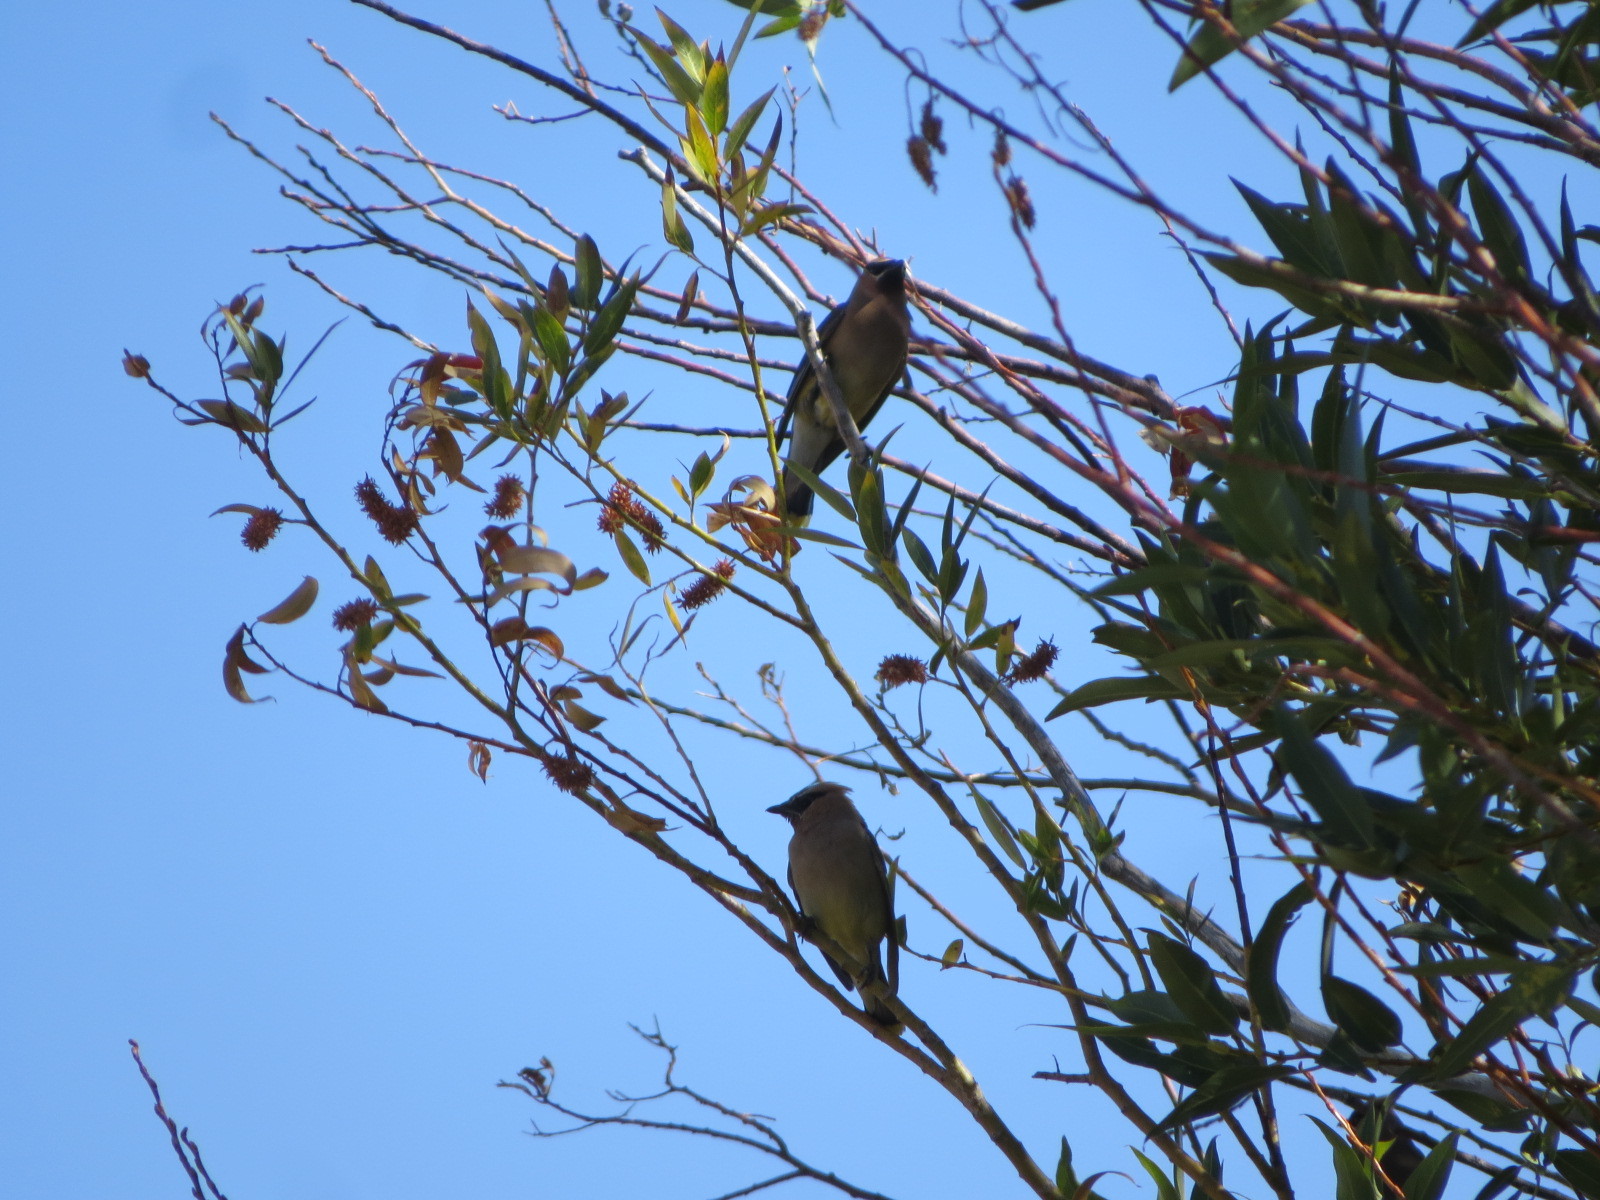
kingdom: Animalia
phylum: Chordata
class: Aves
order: Passeriformes
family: Bombycillidae
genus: Bombycilla
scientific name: Bombycilla cedrorum
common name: Cedar waxwing
